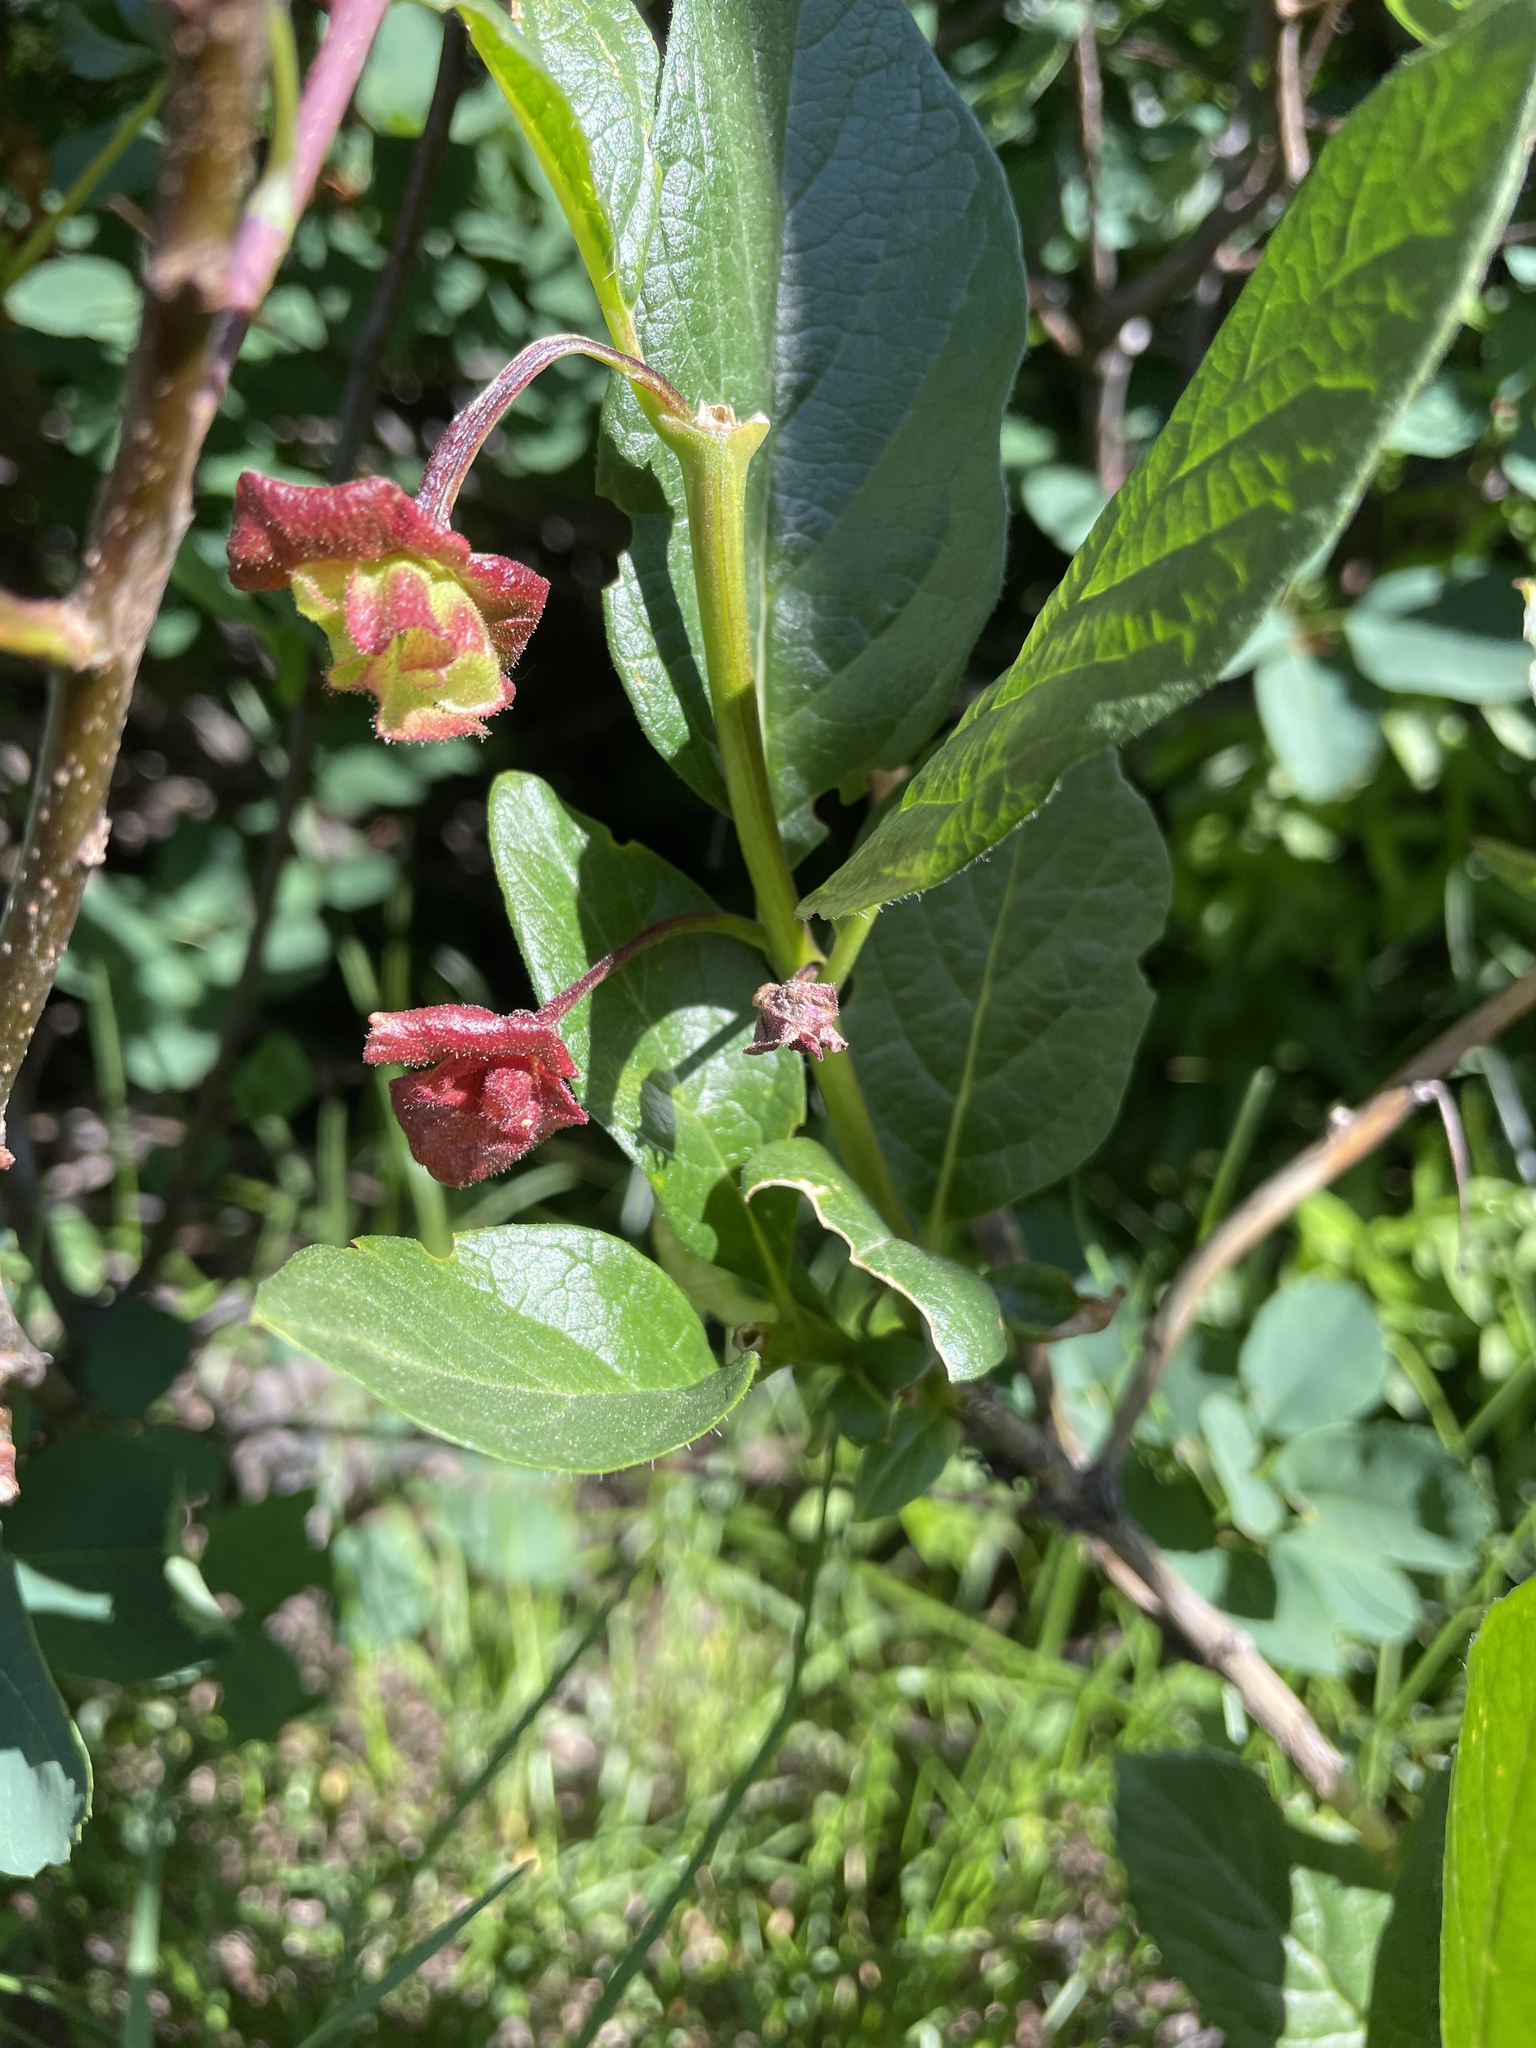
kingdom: Plantae
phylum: Tracheophyta
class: Magnoliopsida
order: Dipsacales
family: Caprifoliaceae
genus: Lonicera
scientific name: Lonicera involucrata
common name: Californian honeysuckle
